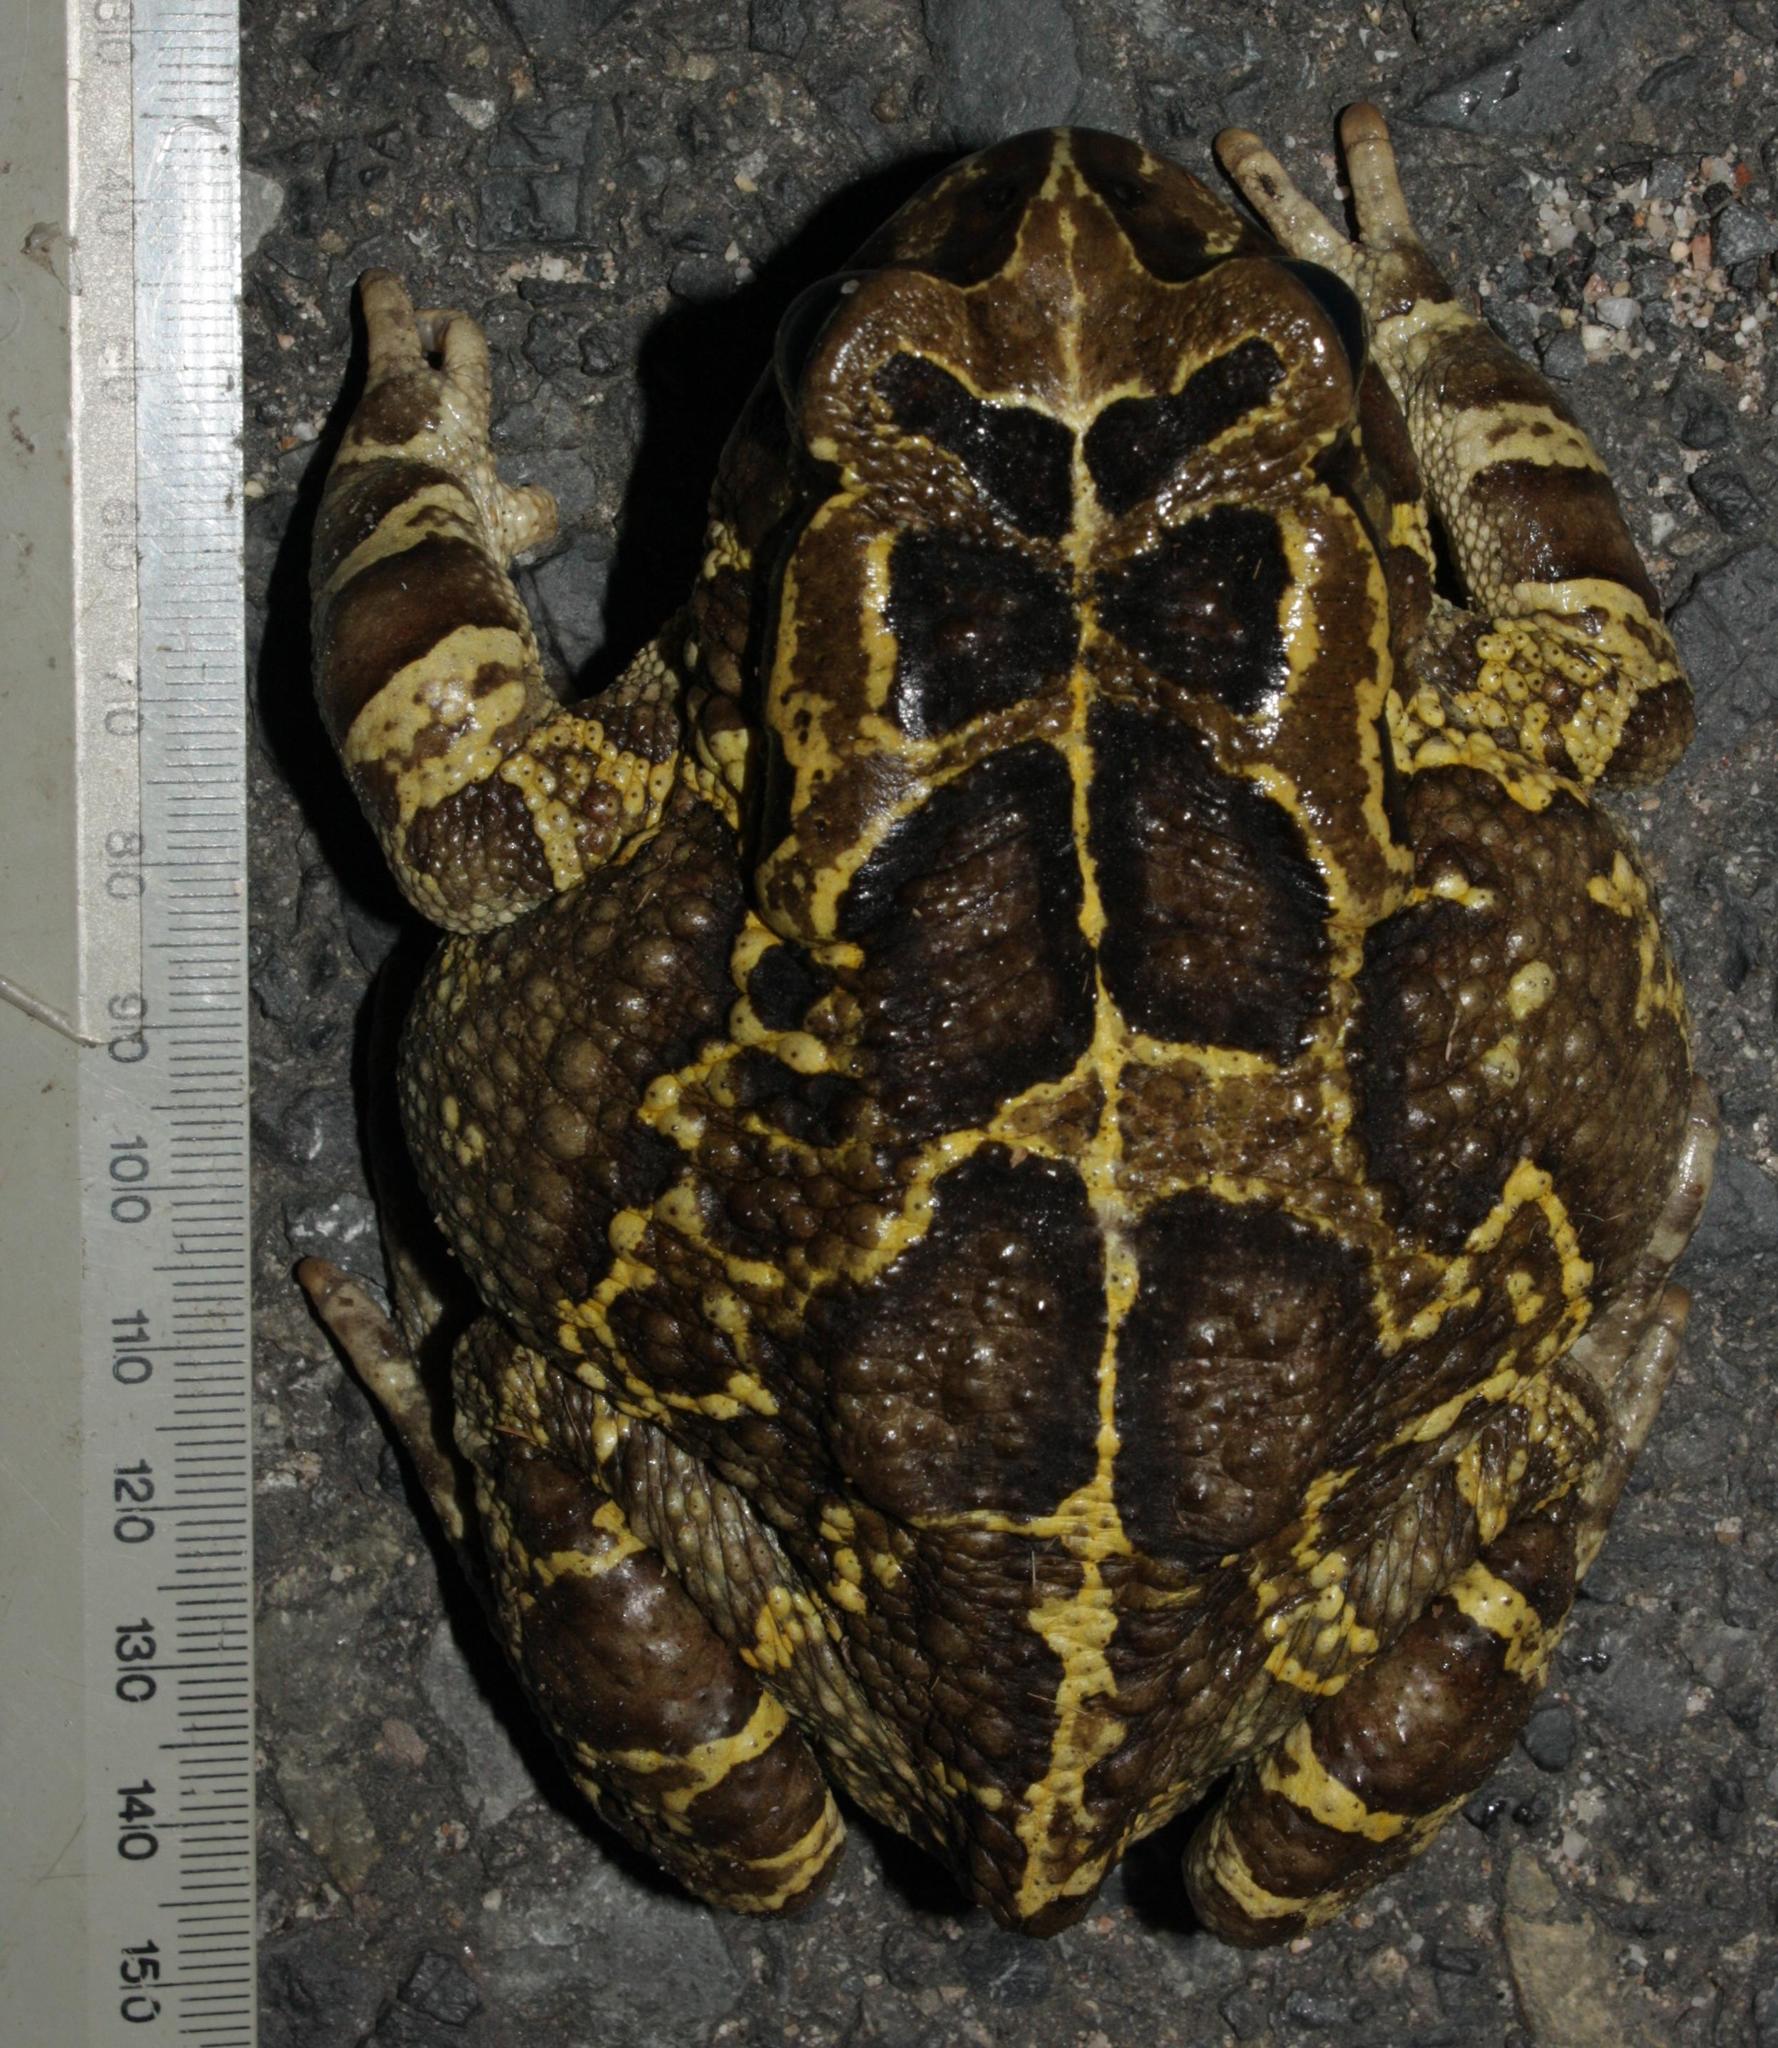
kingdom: Animalia
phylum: Chordata
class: Amphibia
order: Anura
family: Bufonidae
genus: Sclerophrys
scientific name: Sclerophrys pantherina
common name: Panther toad
